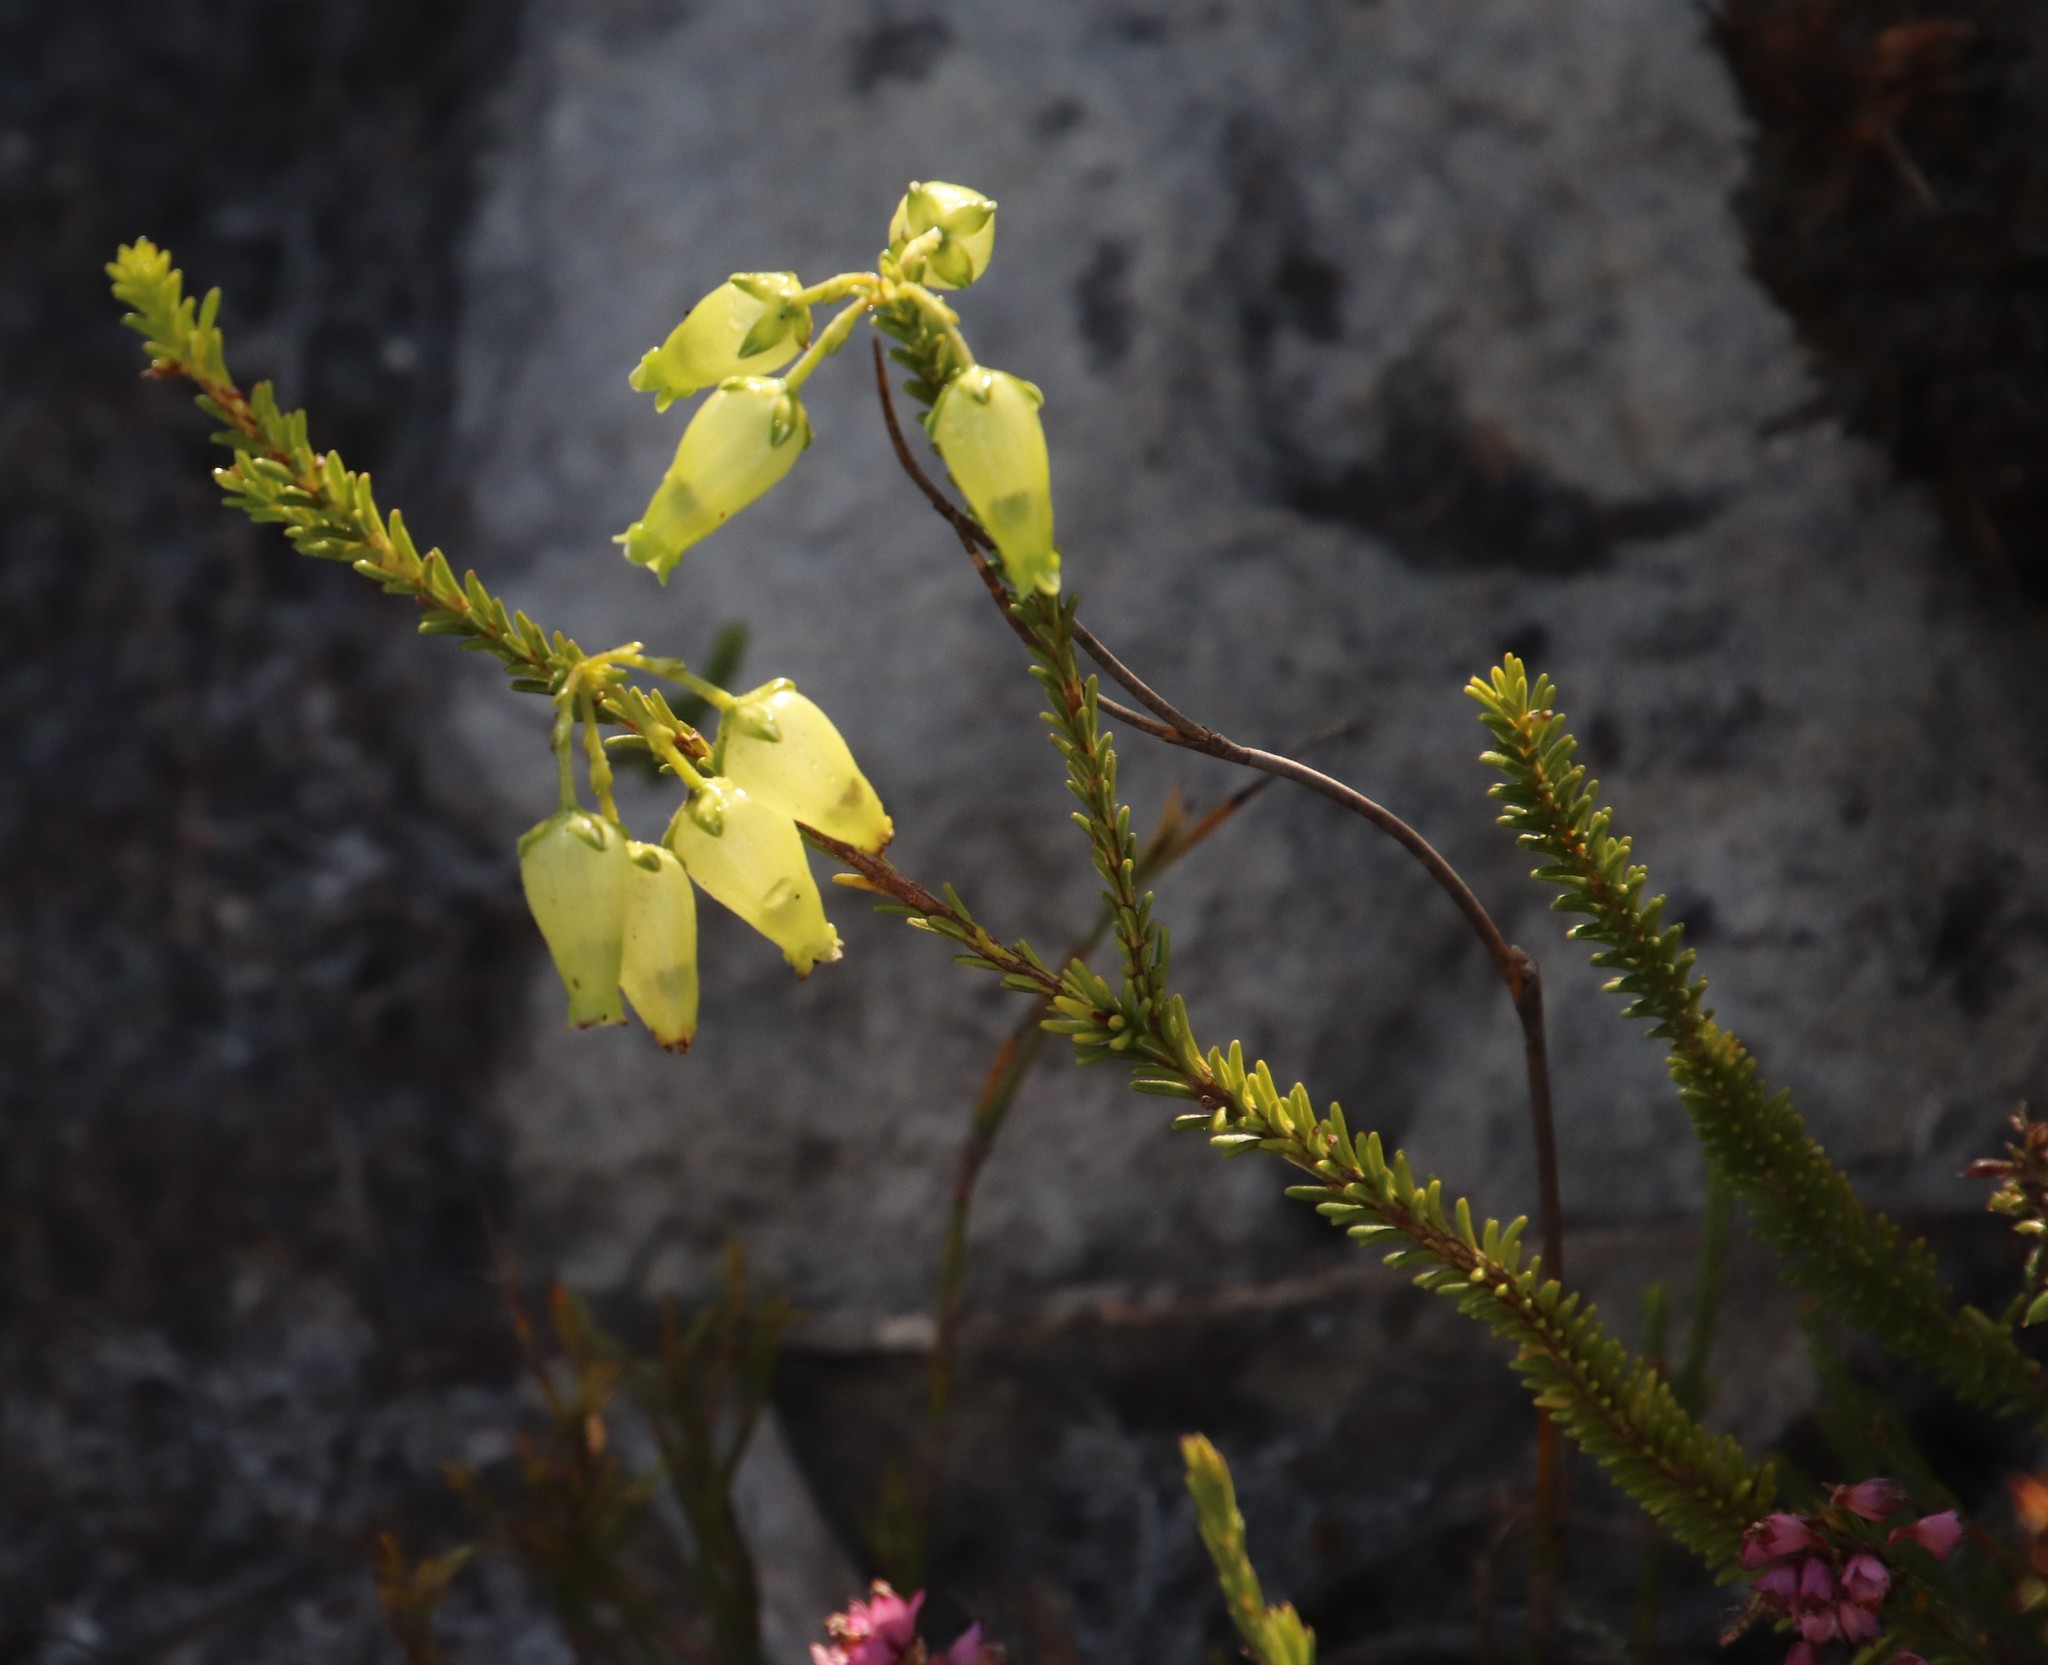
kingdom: Plantae
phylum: Tracheophyta
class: Magnoliopsida
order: Ericales
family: Ericaceae
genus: Erica
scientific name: Erica urna-viridis
